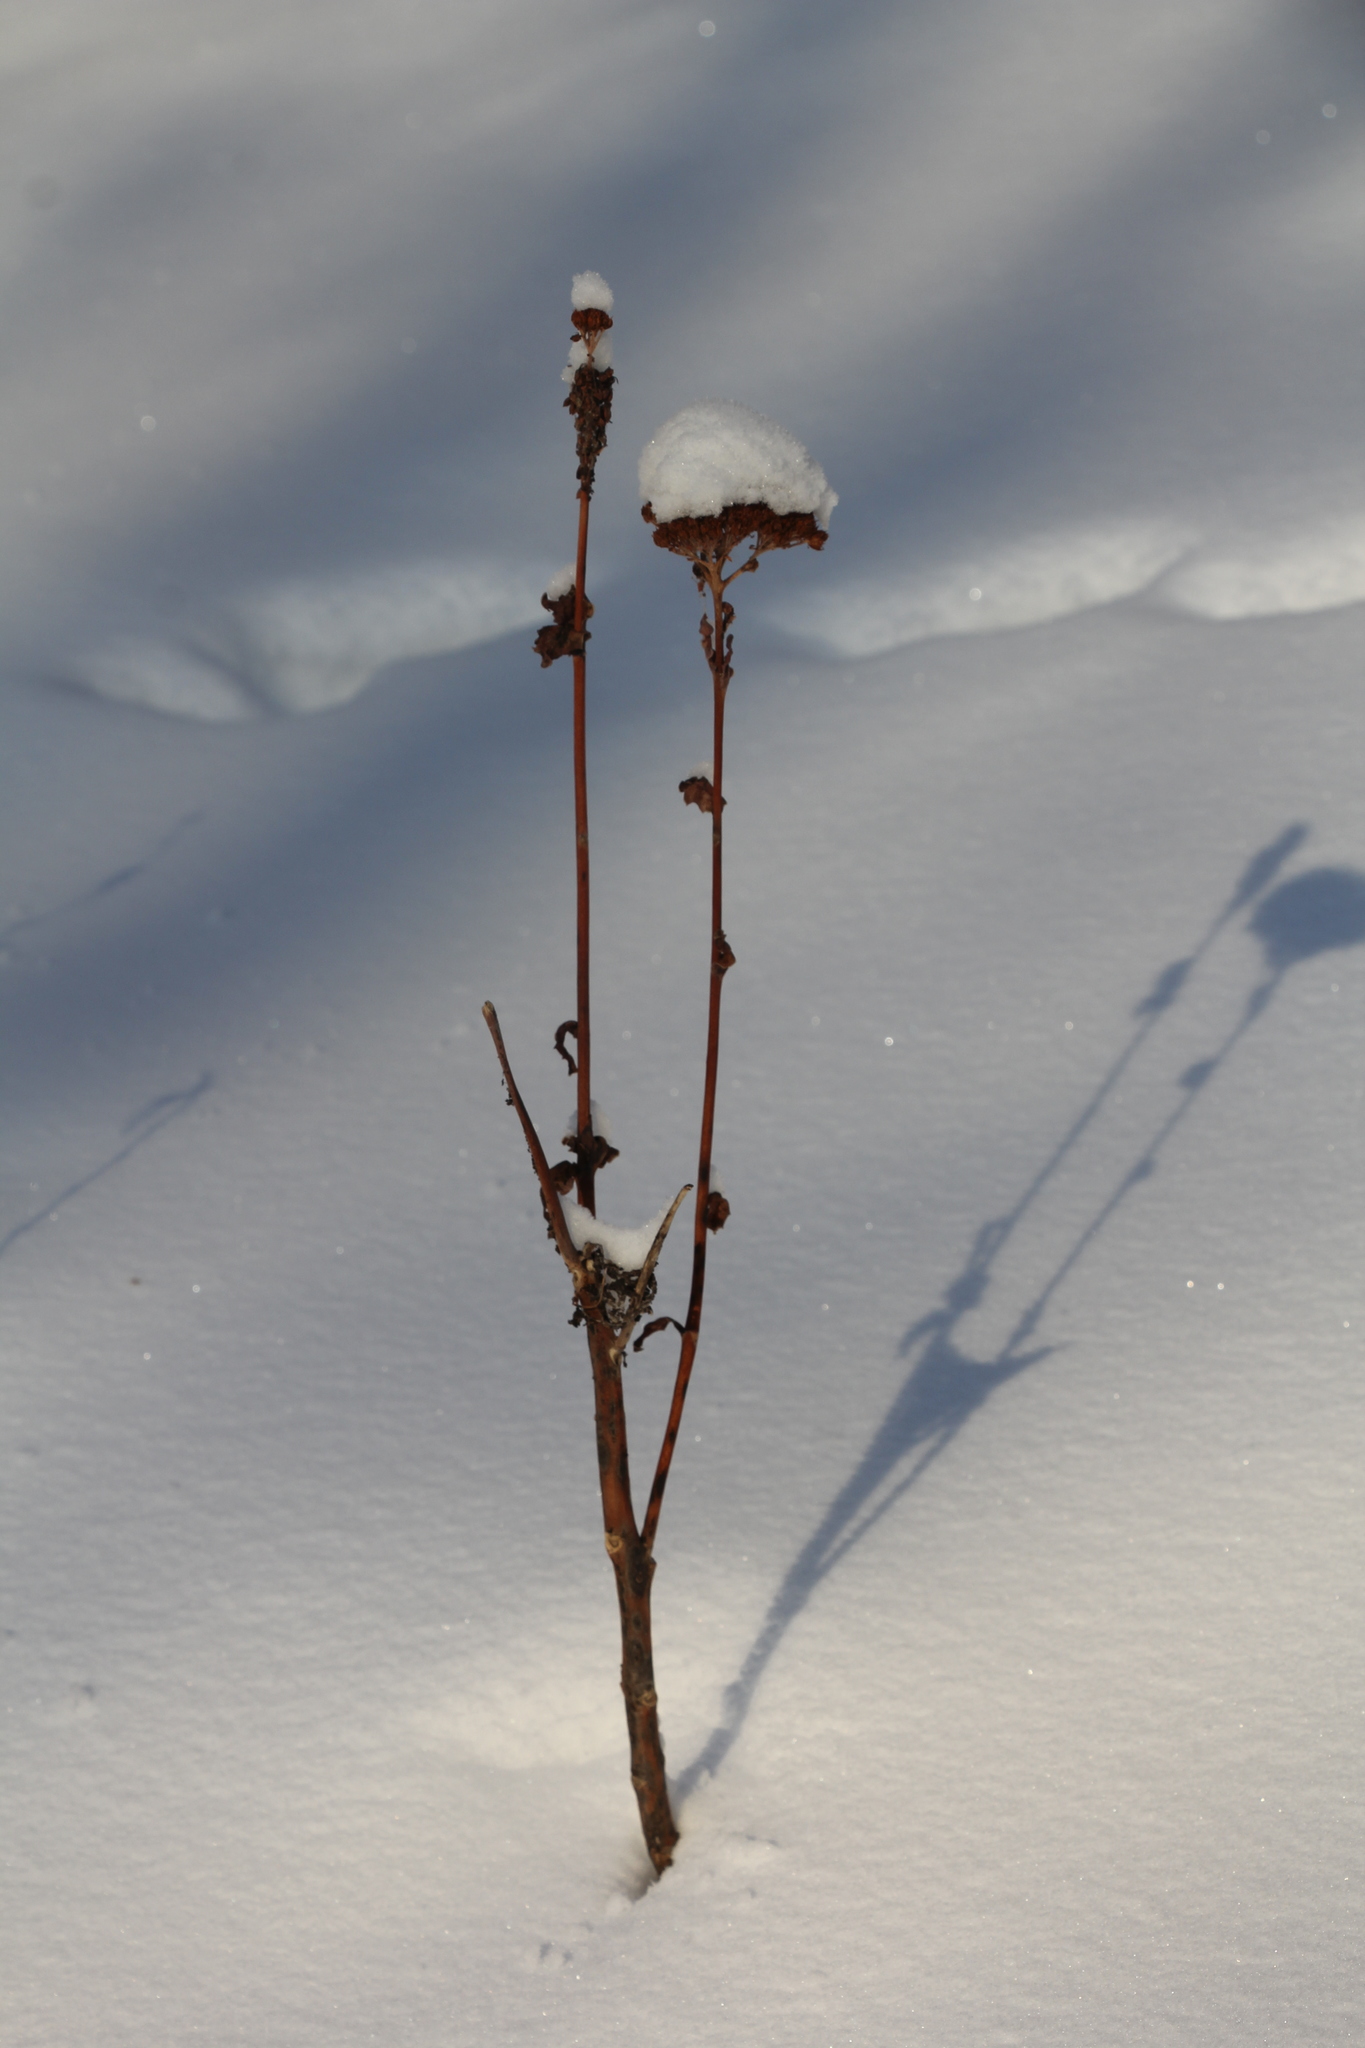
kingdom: Plantae
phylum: Tracheophyta
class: Magnoliopsida
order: Saxifragales
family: Crassulaceae
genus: Hylotelephium
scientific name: Hylotelephium telephium
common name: Live-forever
